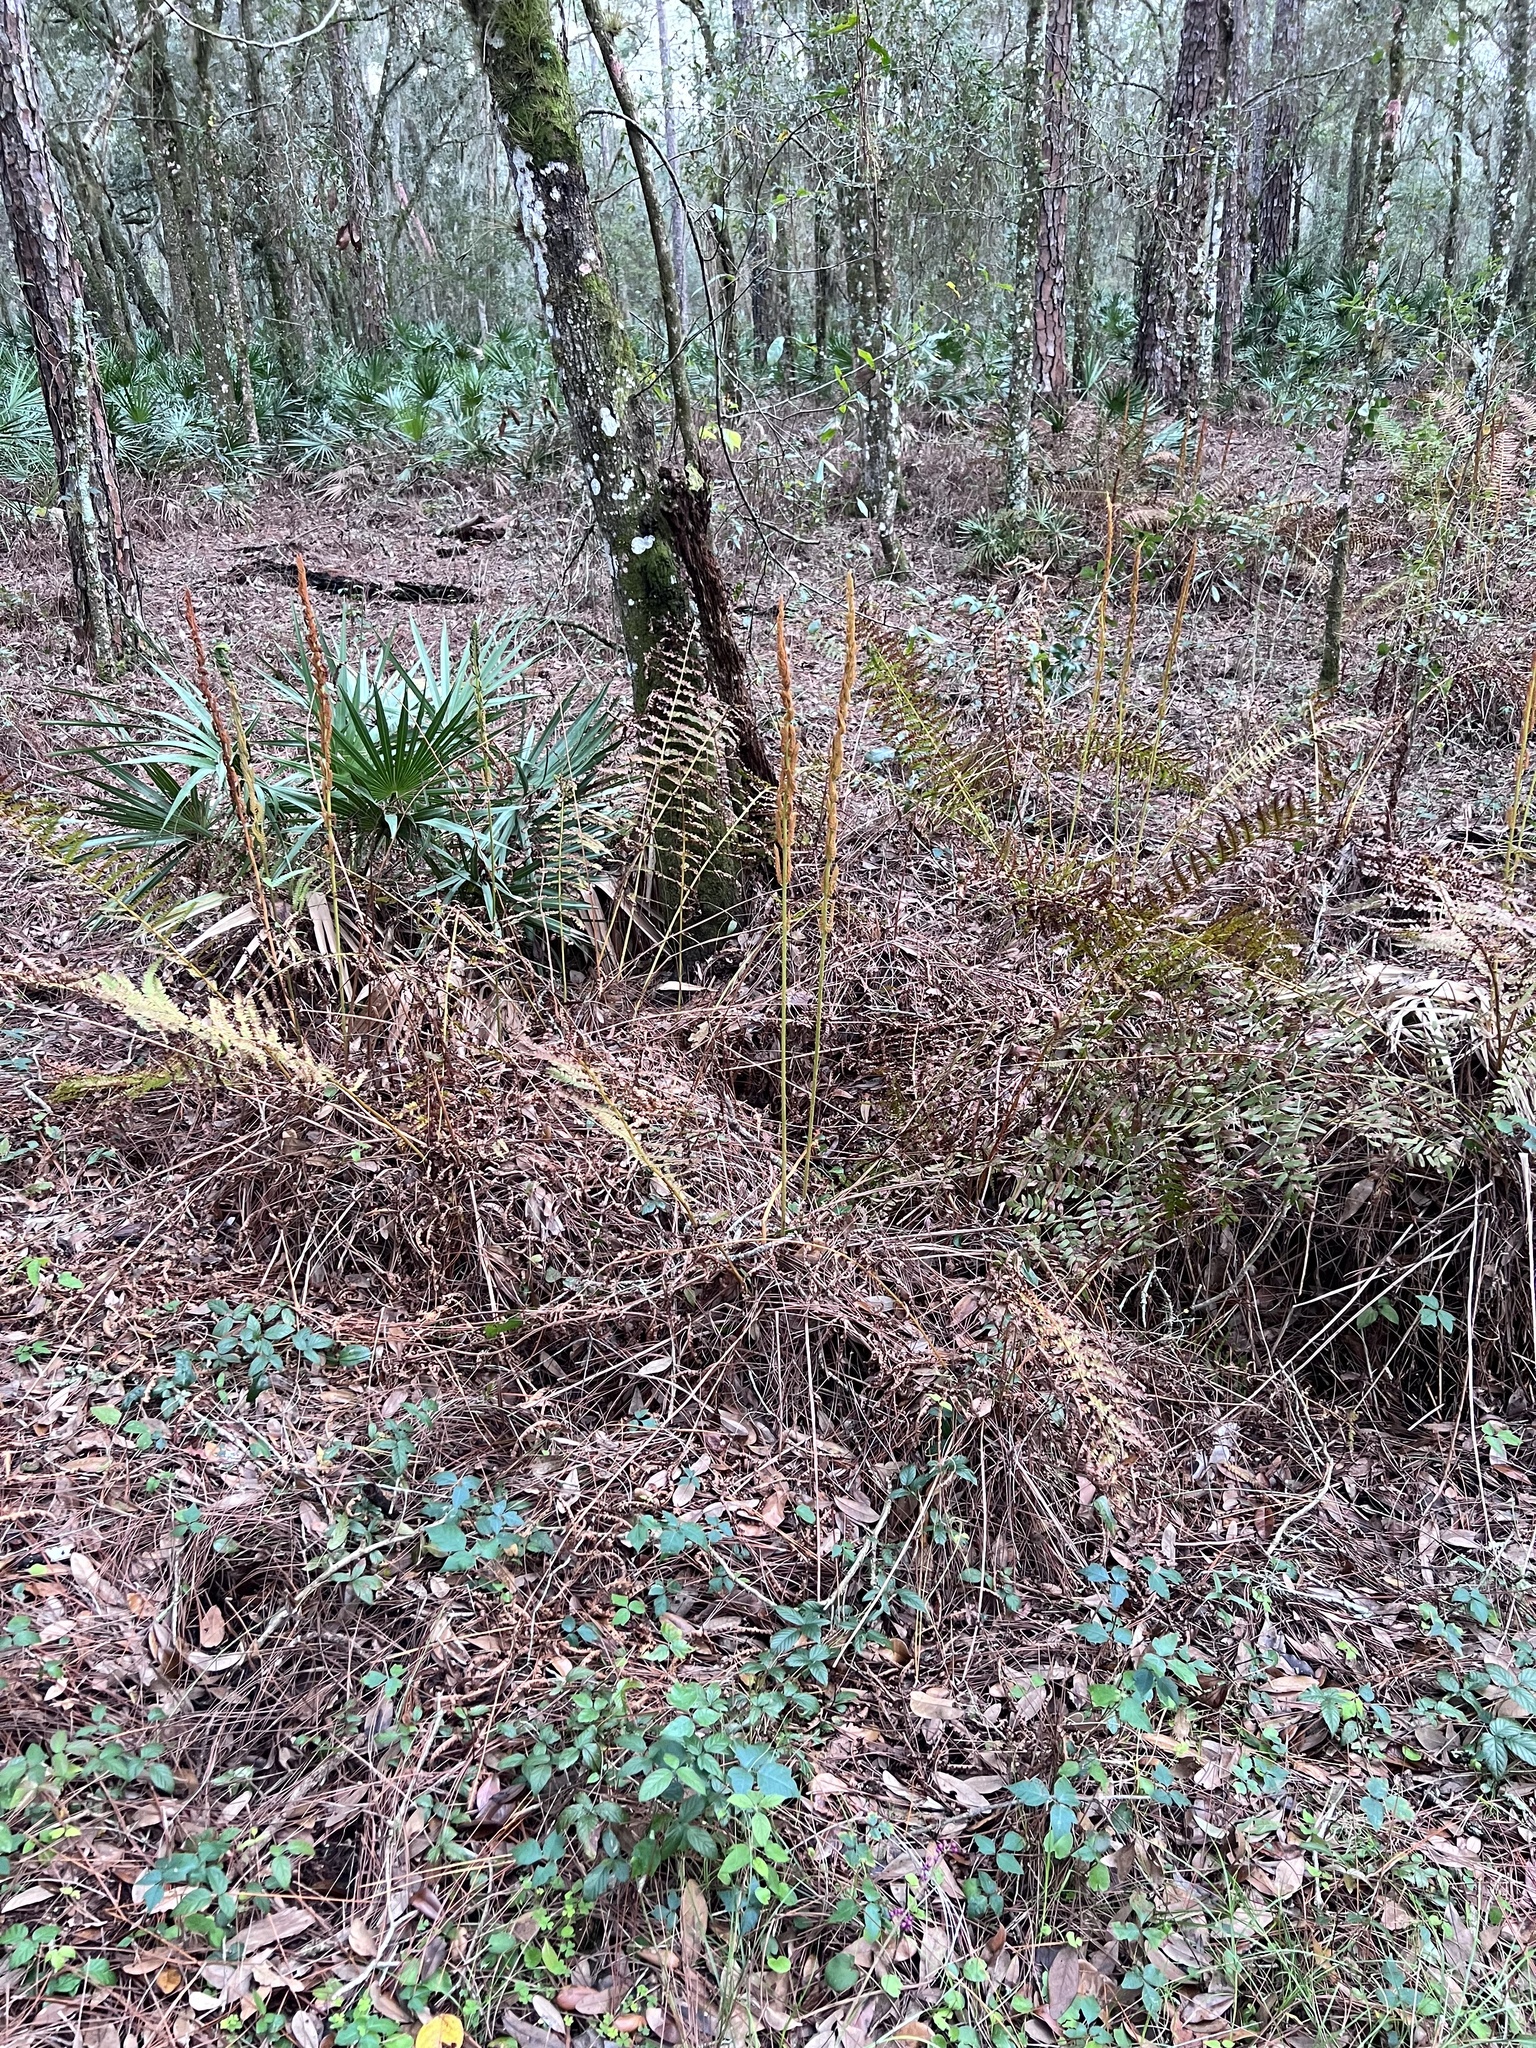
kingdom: Plantae
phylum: Tracheophyta
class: Polypodiopsida
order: Osmundales
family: Osmundaceae
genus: Osmundastrum
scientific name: Osmundastrum cinnamomeum
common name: Cinnamon fern
